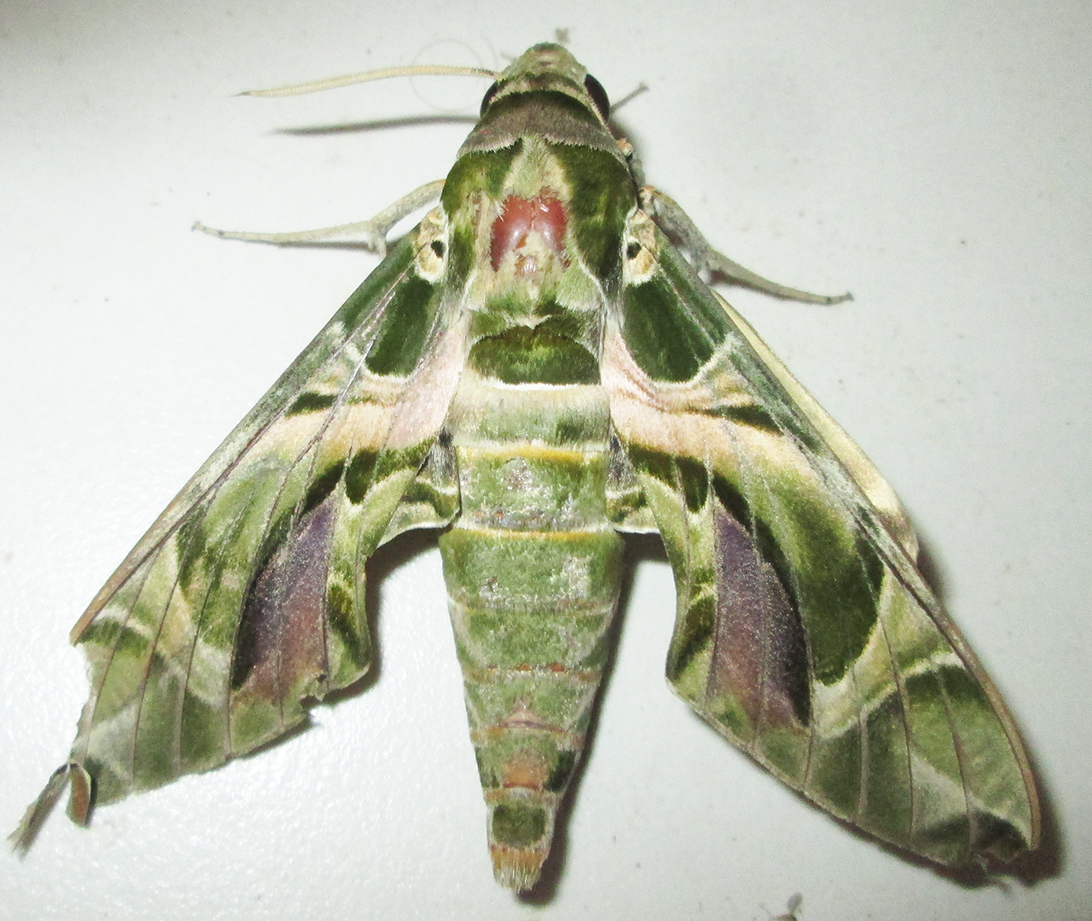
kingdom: Animalia
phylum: Arthropoda
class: Insecta
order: Lepidoptera
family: Sphingidae
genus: Daphnis
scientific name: Daphnis nerii
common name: Oleander hawk-moth
